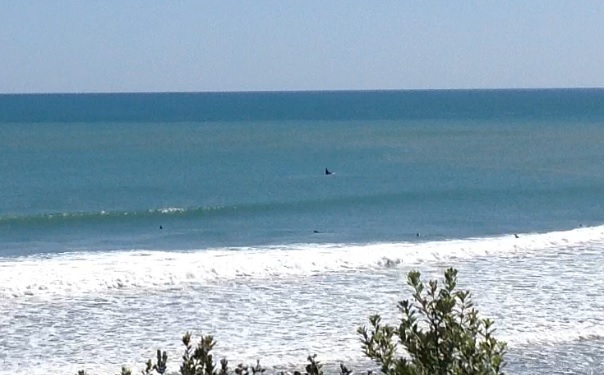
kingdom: Animalia
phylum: Chordata
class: Mammalia
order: Cetacea
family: Delphinidae
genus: Orcinus
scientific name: Orcinus orca
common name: Killer whale
